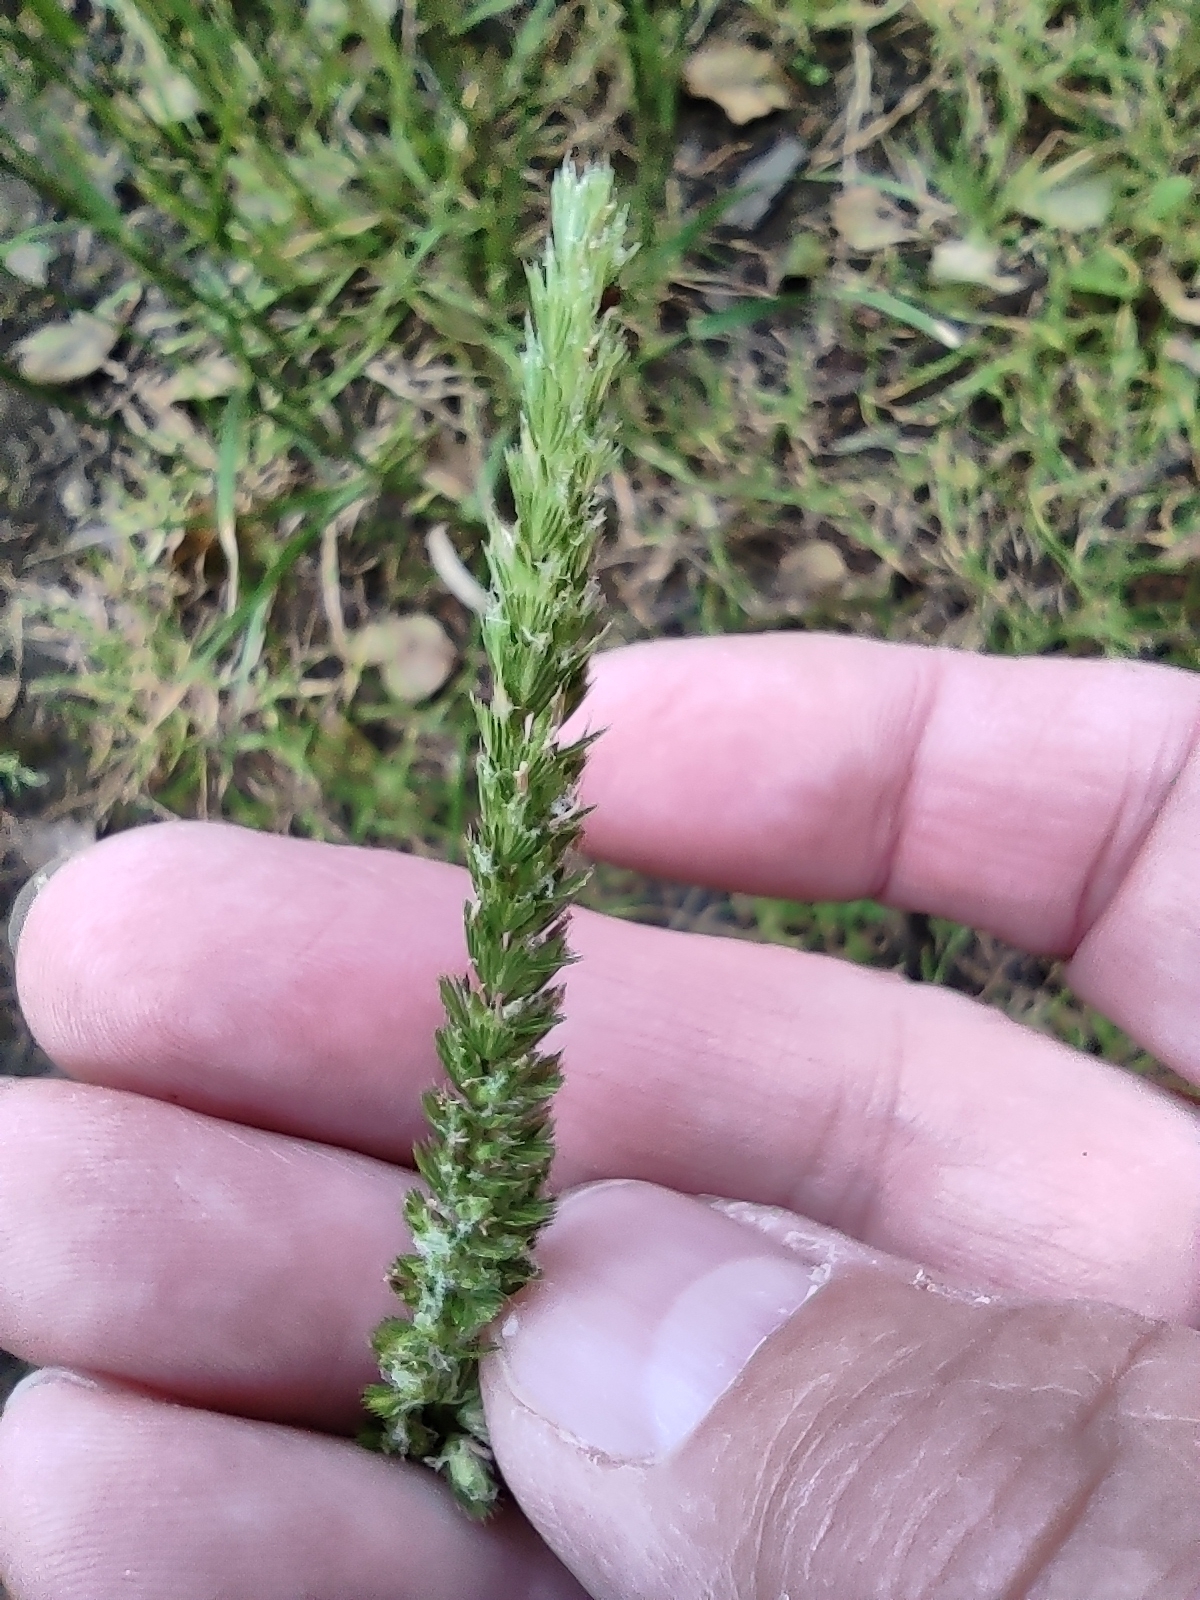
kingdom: Plantae
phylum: Tracheophyta
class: Liliopsida
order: Poales
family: Poaceae
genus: Cynosurus
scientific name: Cynosurus cristatus
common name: Crested dog's-tail
